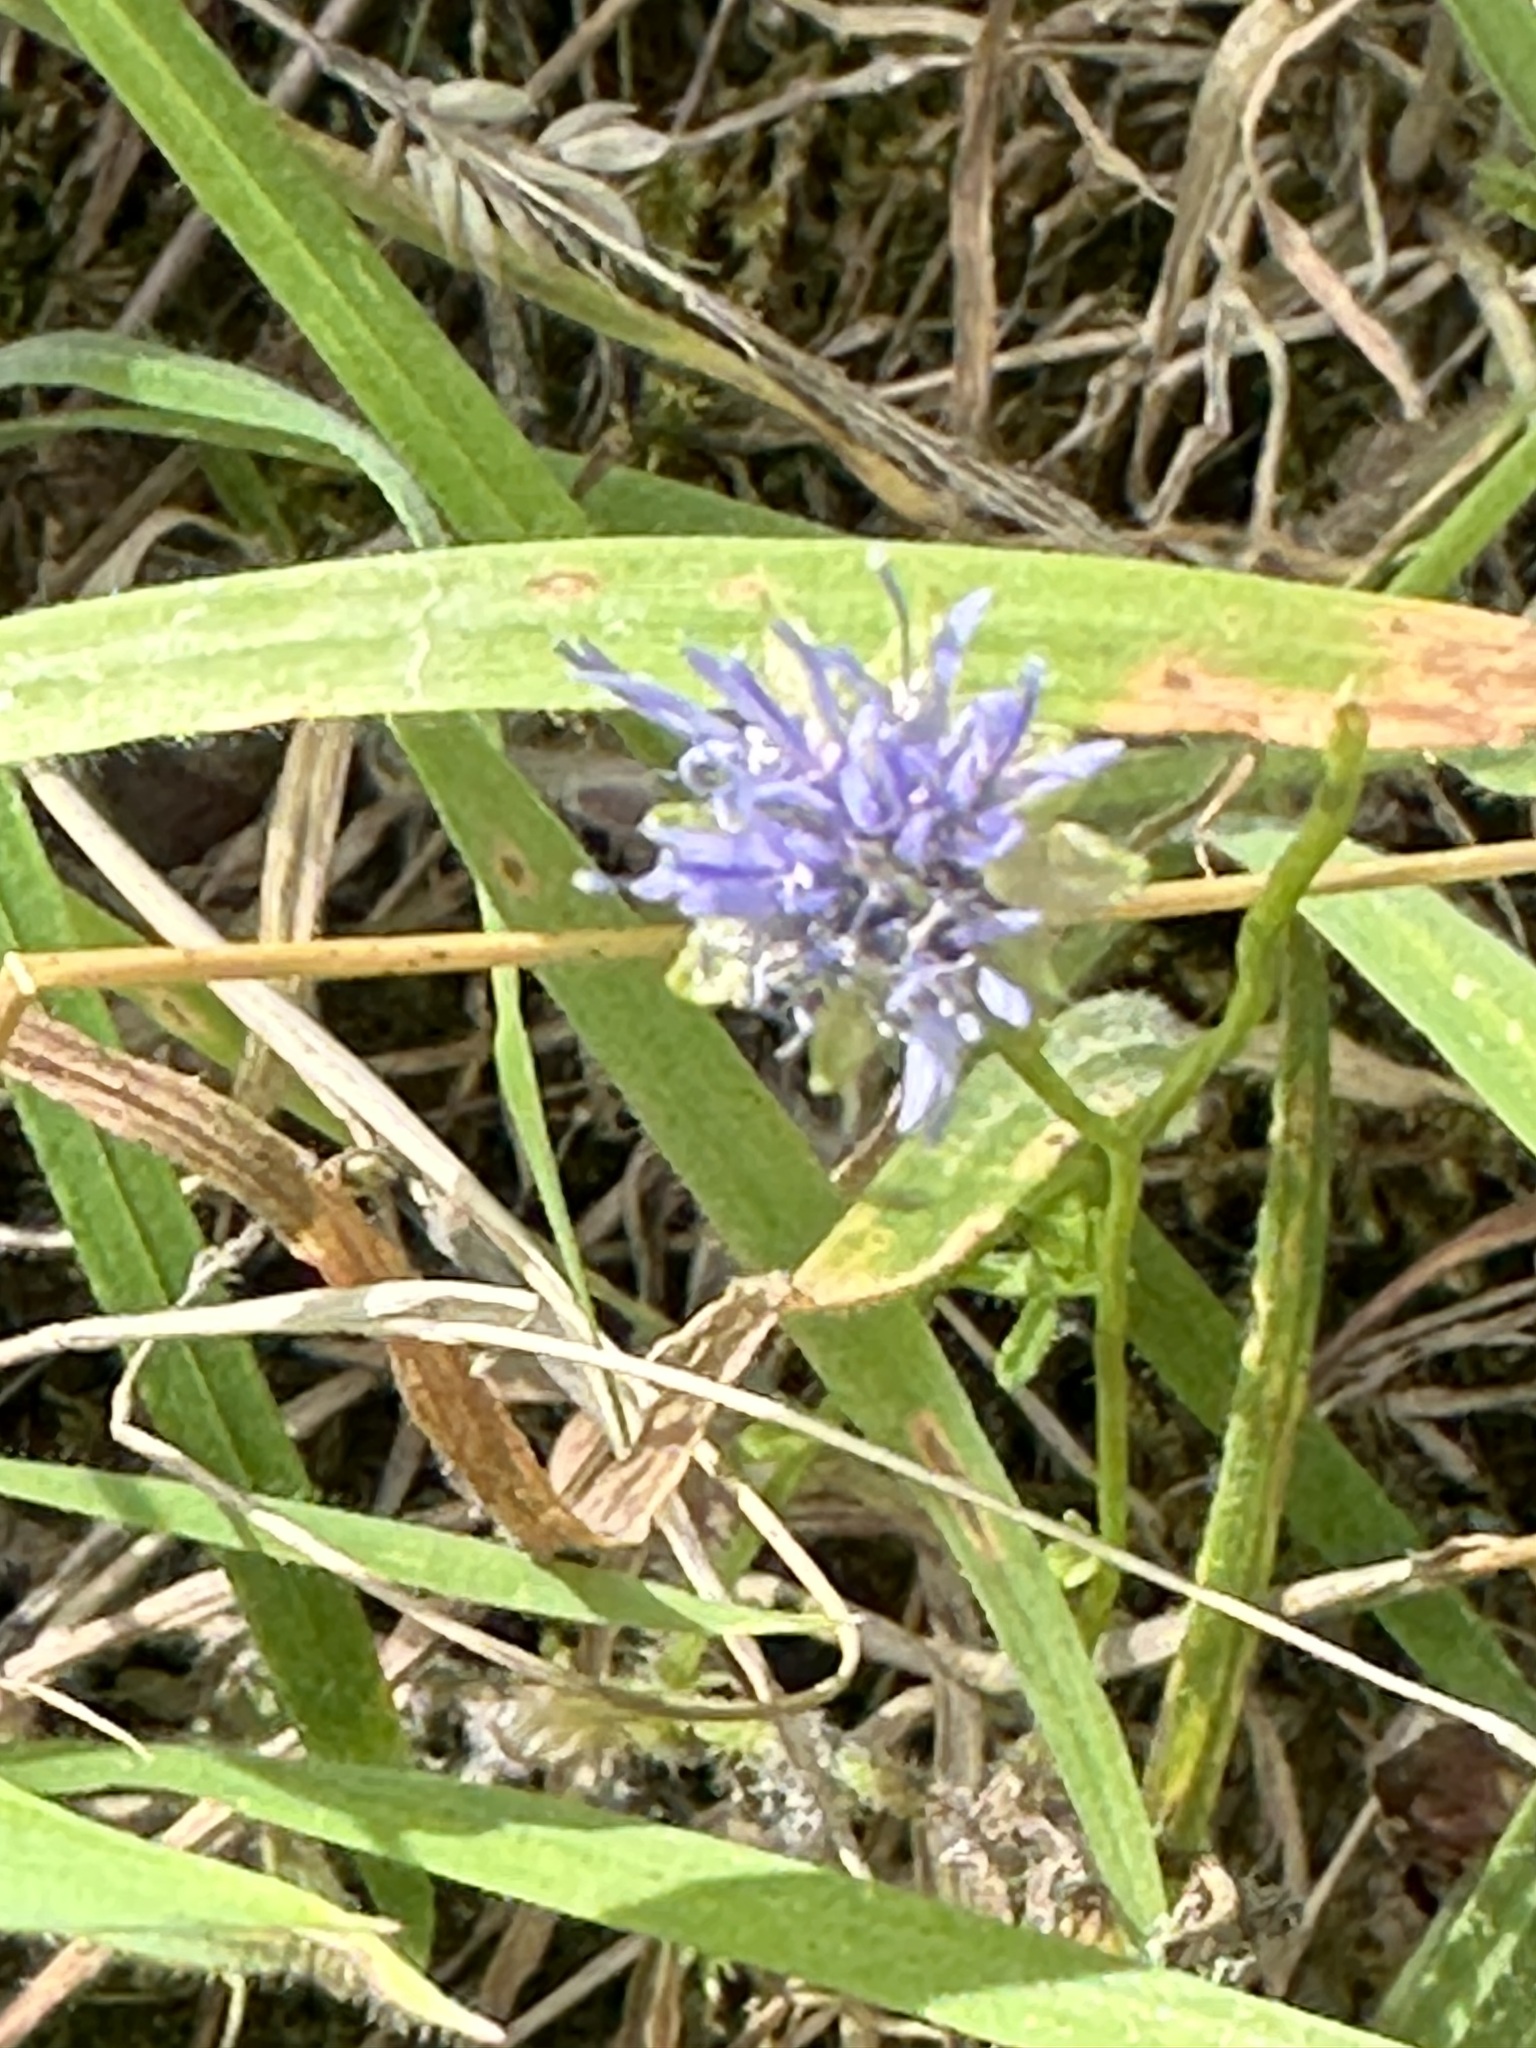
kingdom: Plantae
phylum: Tracheophyta
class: Magnoliopsida
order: Asterales
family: Campanulaceae
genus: Jasione
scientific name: Jasione montana
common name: Sheep's-bit
